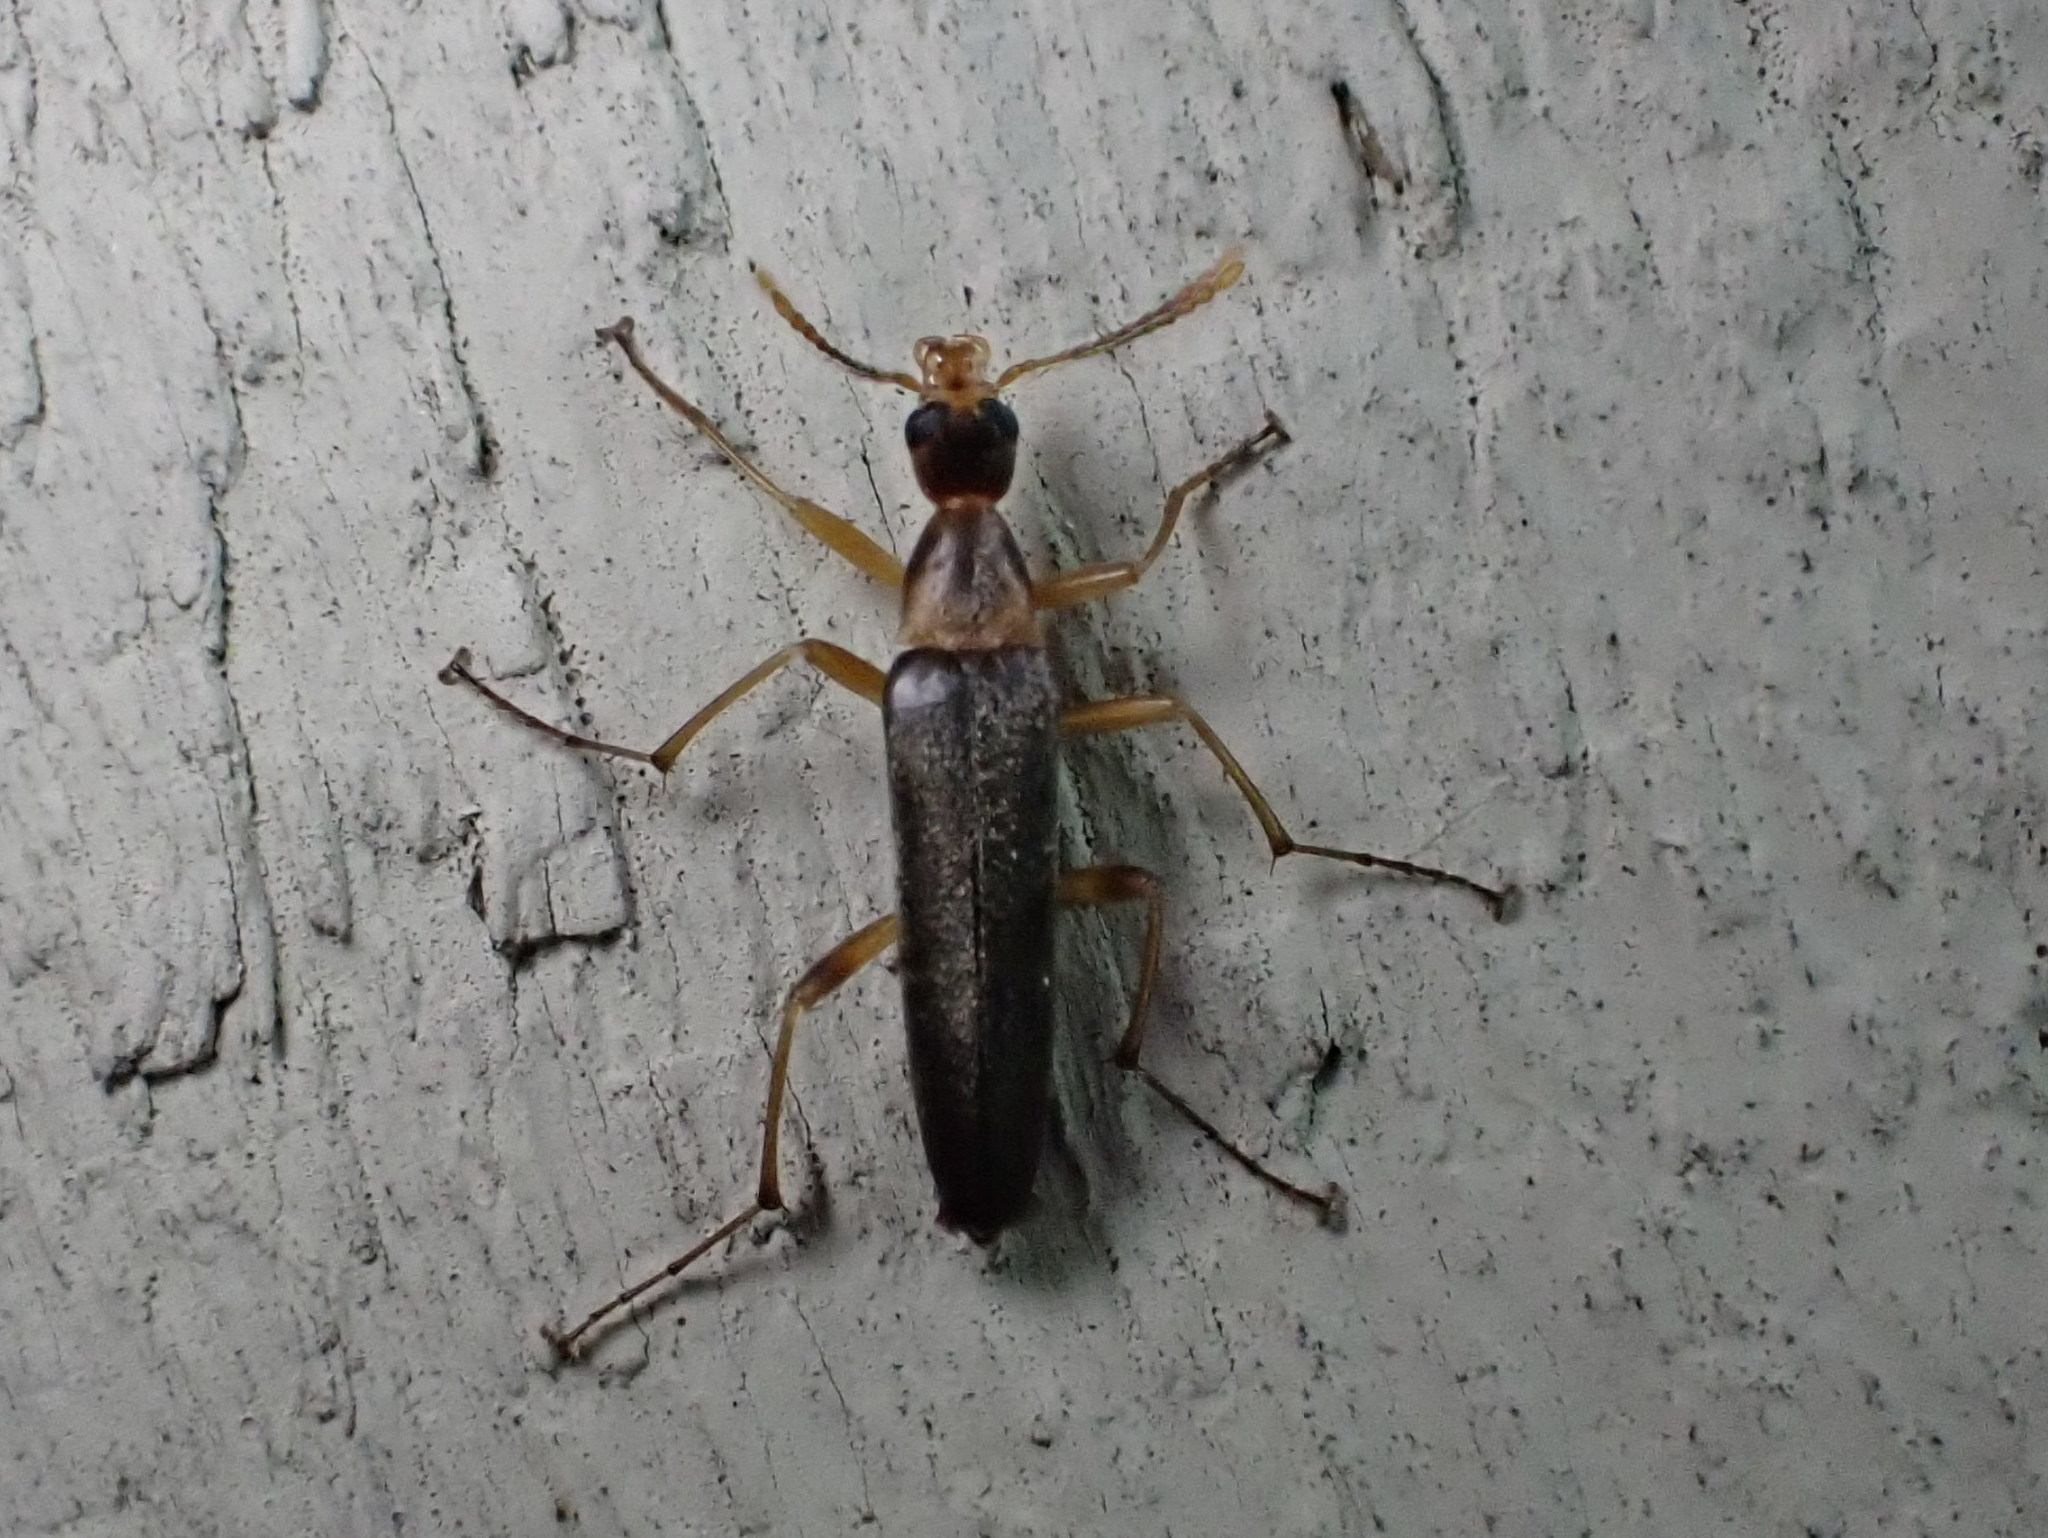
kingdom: Animalia
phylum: Arthropoda
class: Insecta
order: Coleoptera
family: Stenotrachelidae
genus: Cephaloon
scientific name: Cephaloon lepturides
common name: False leptura beetle
